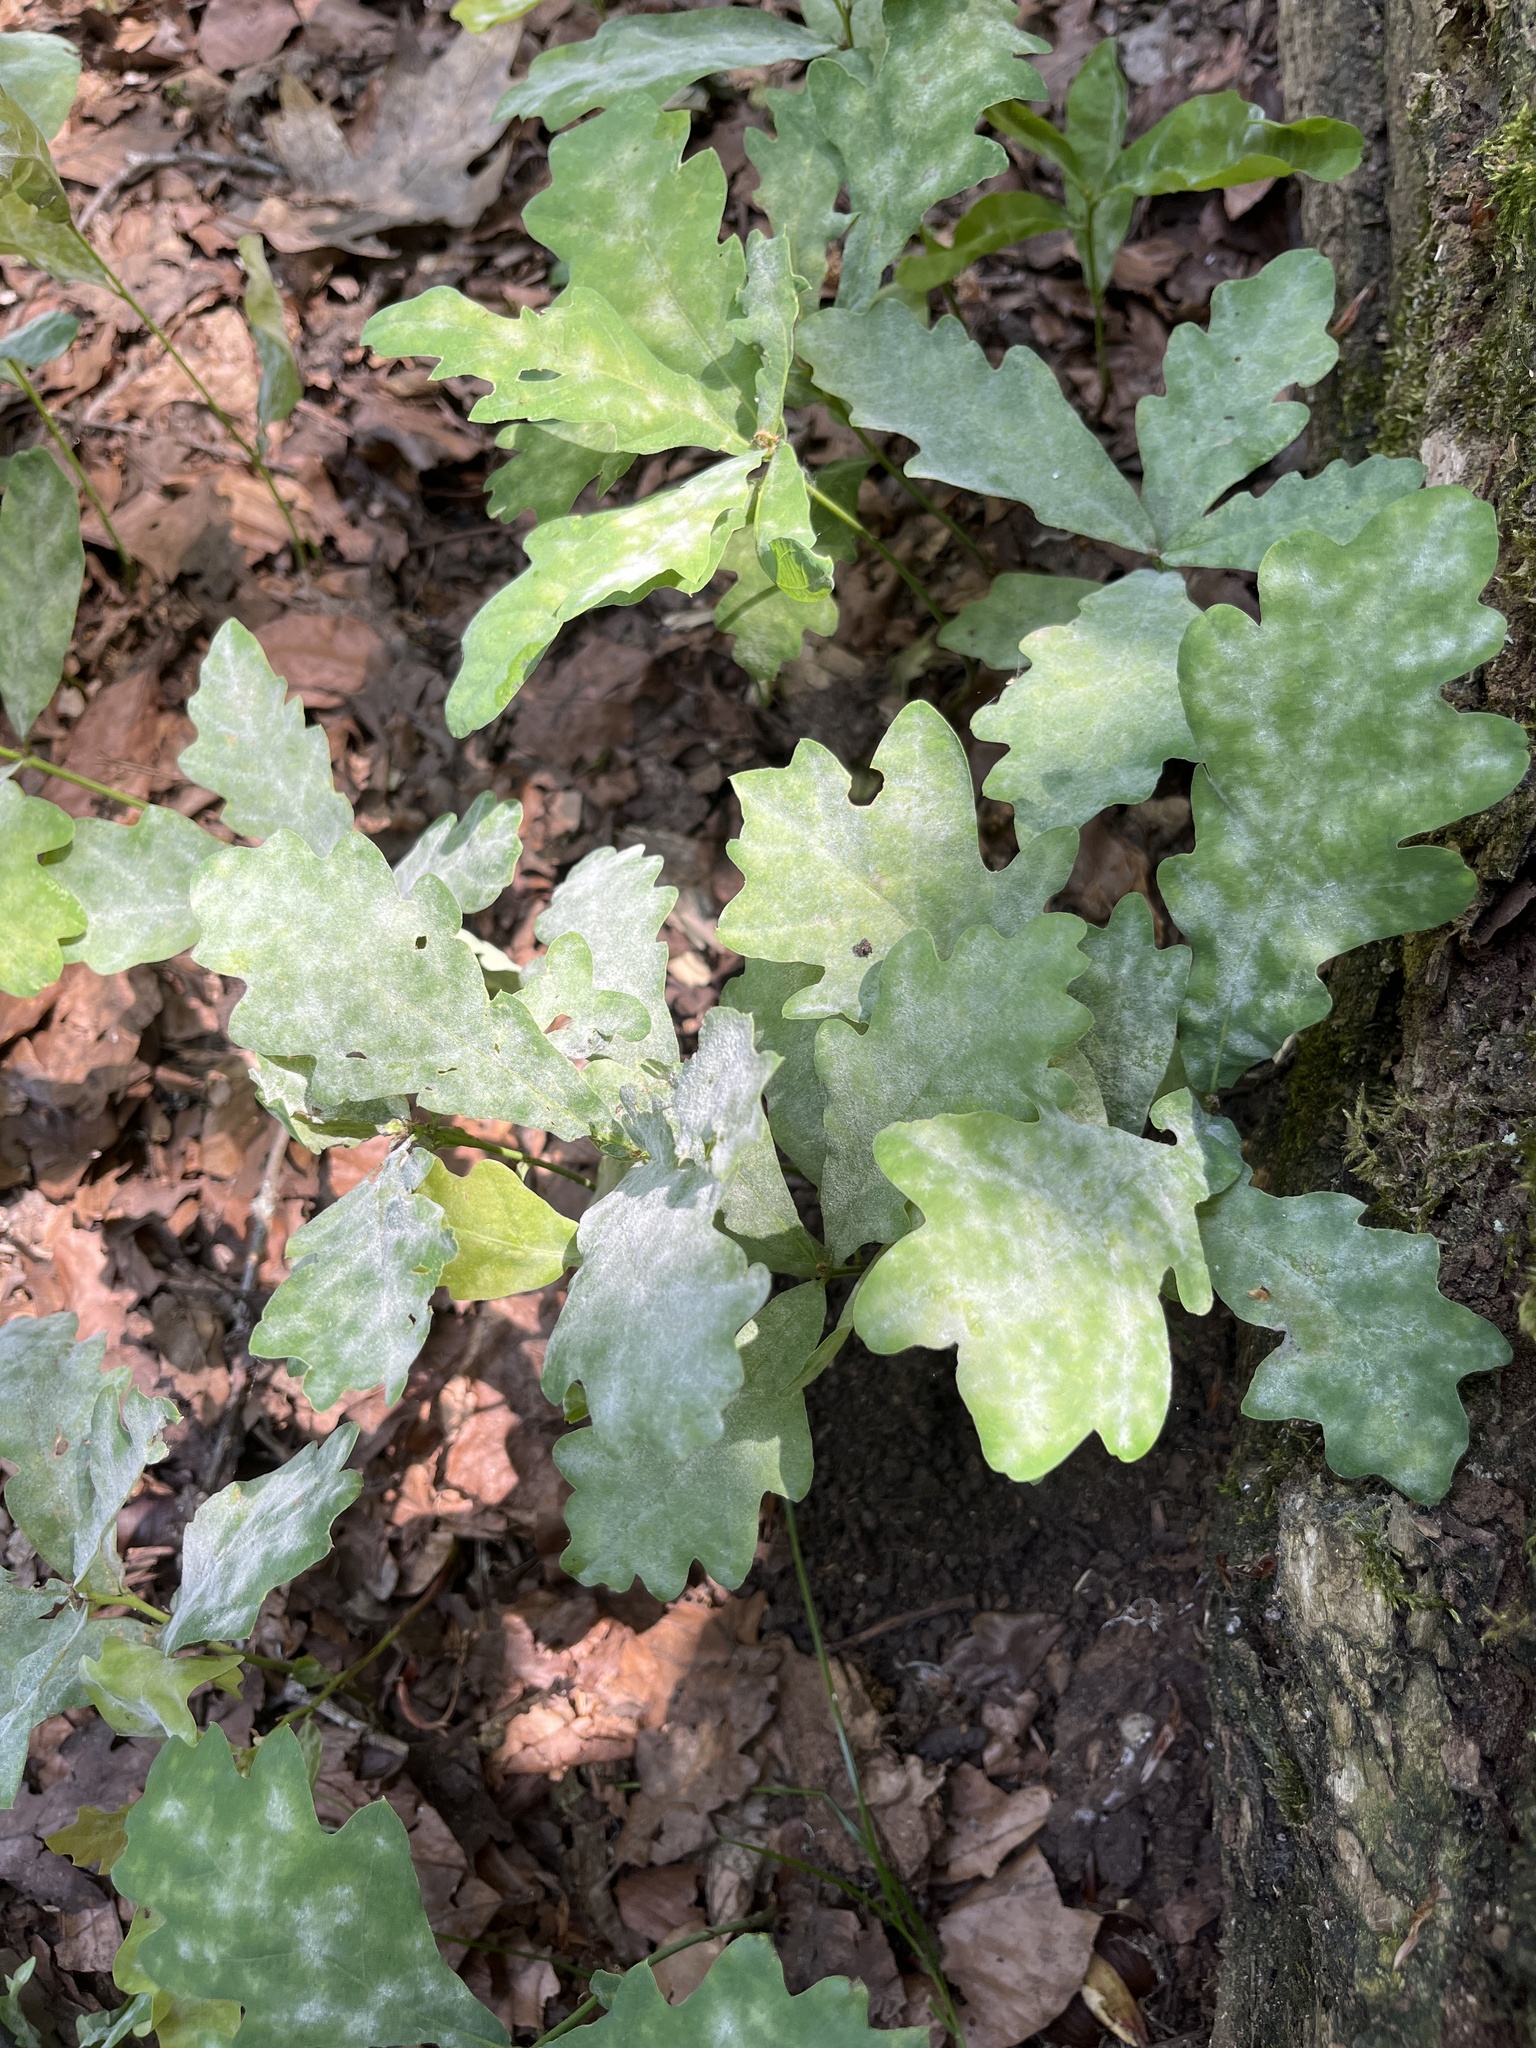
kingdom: Plantae
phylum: Tracheophyta
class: Magnoliopsida
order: Fagales
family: Fagaceae
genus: Quercus
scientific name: Quercus robur
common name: Pedunculate oak
